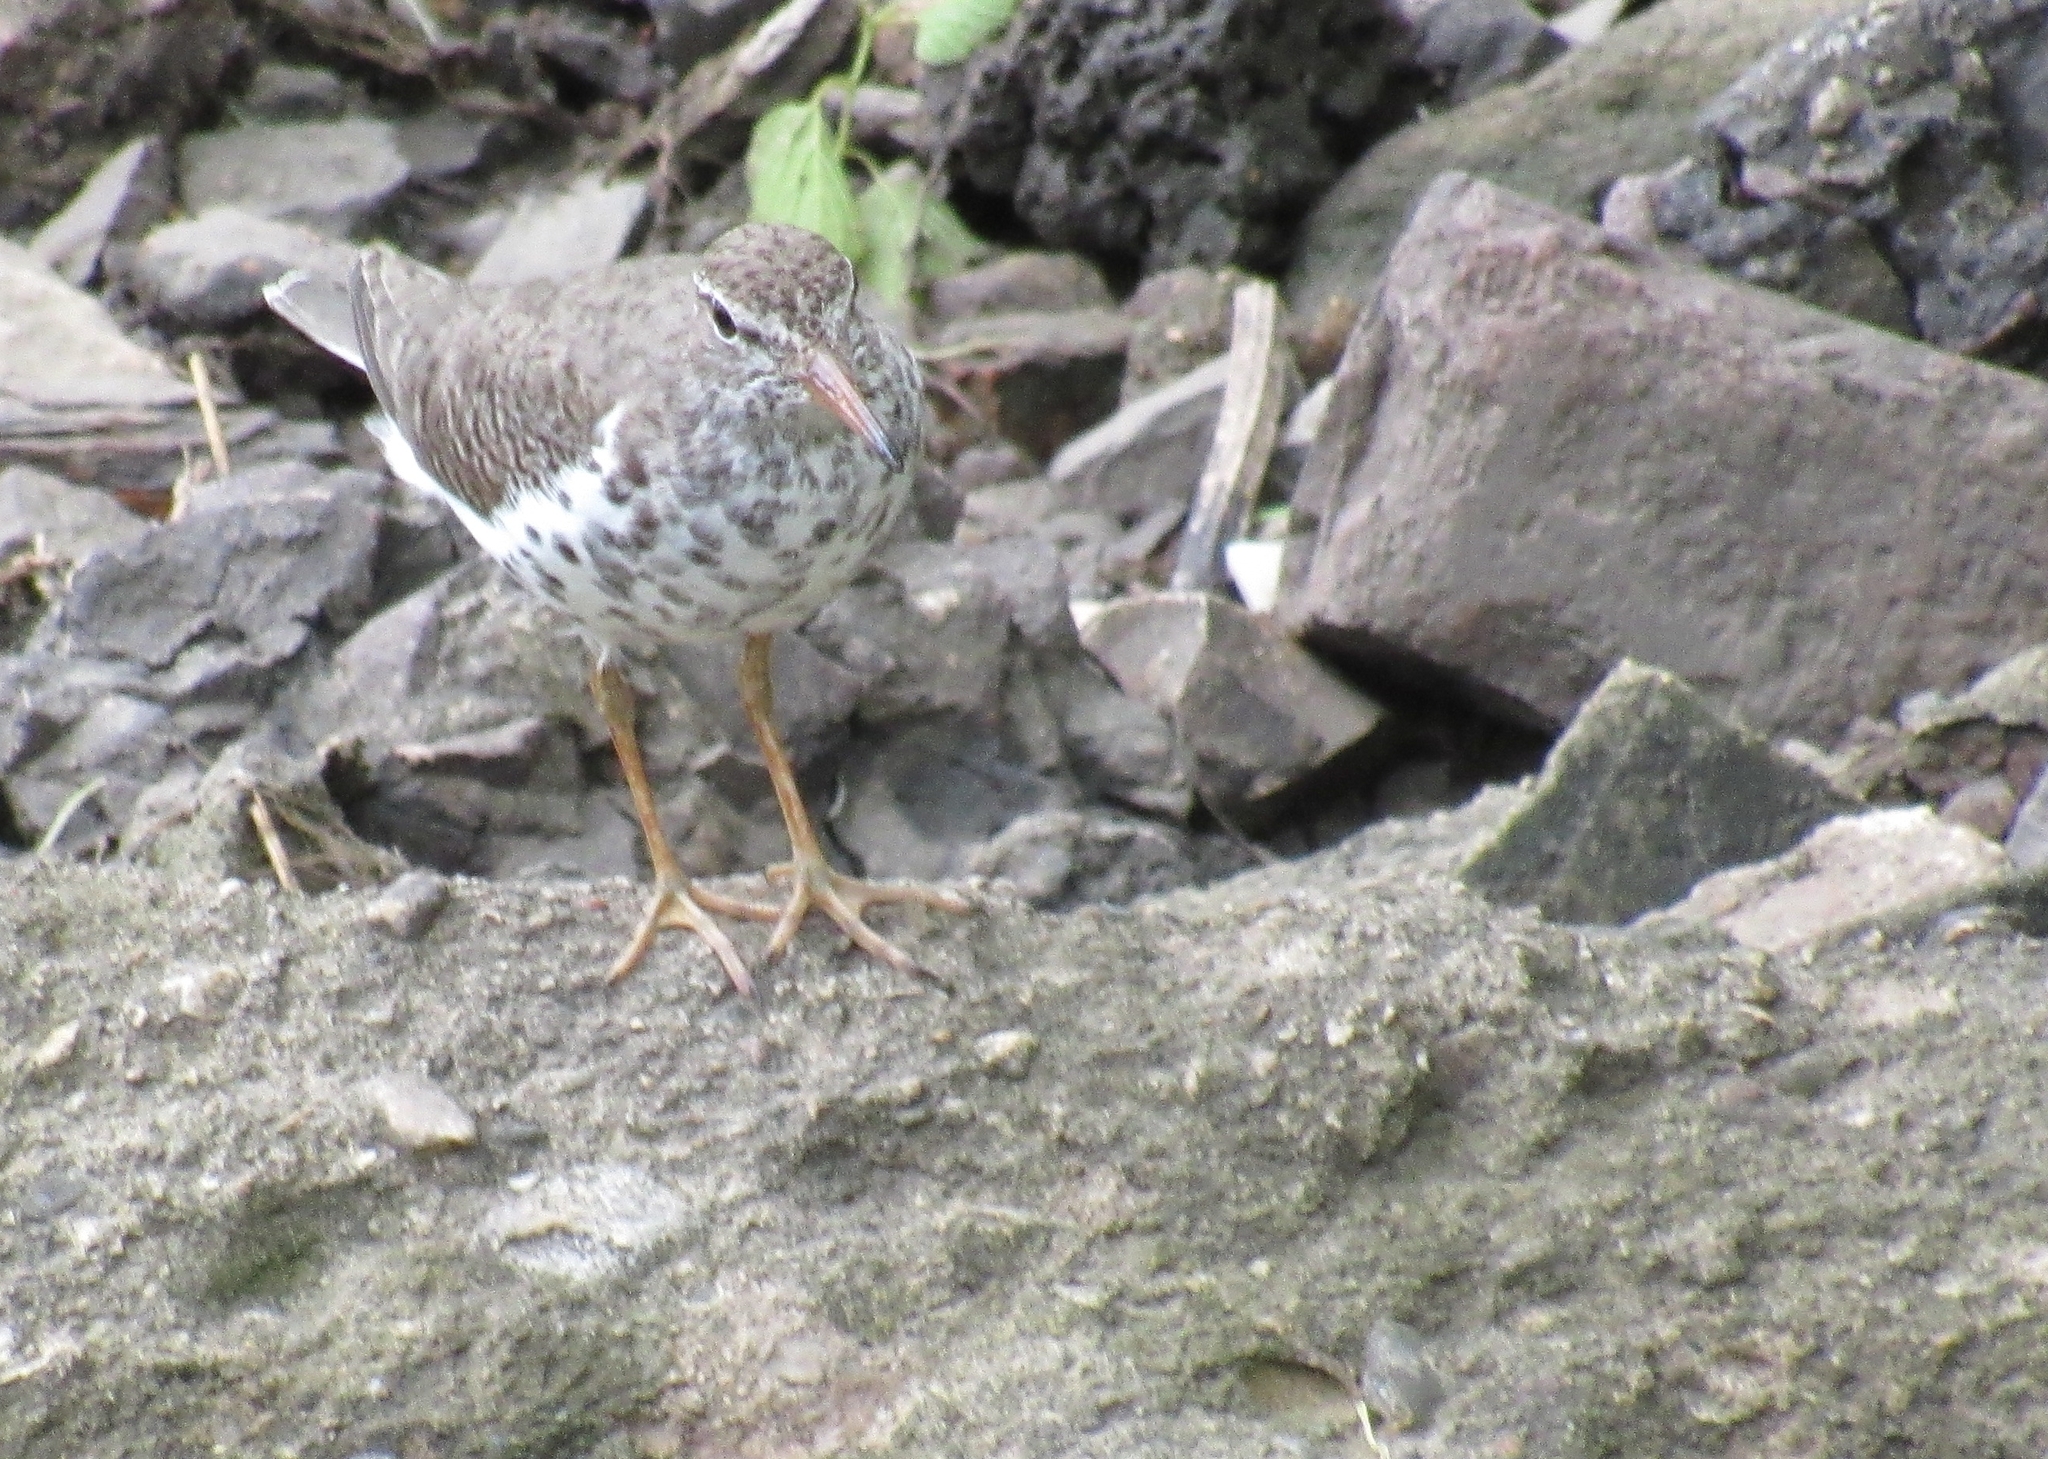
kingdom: Animalia
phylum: Chordata
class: Aves
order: Charadriiformes
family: Scolopacidae
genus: Actitis
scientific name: Actitis macularius
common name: Spotted sandpiper
